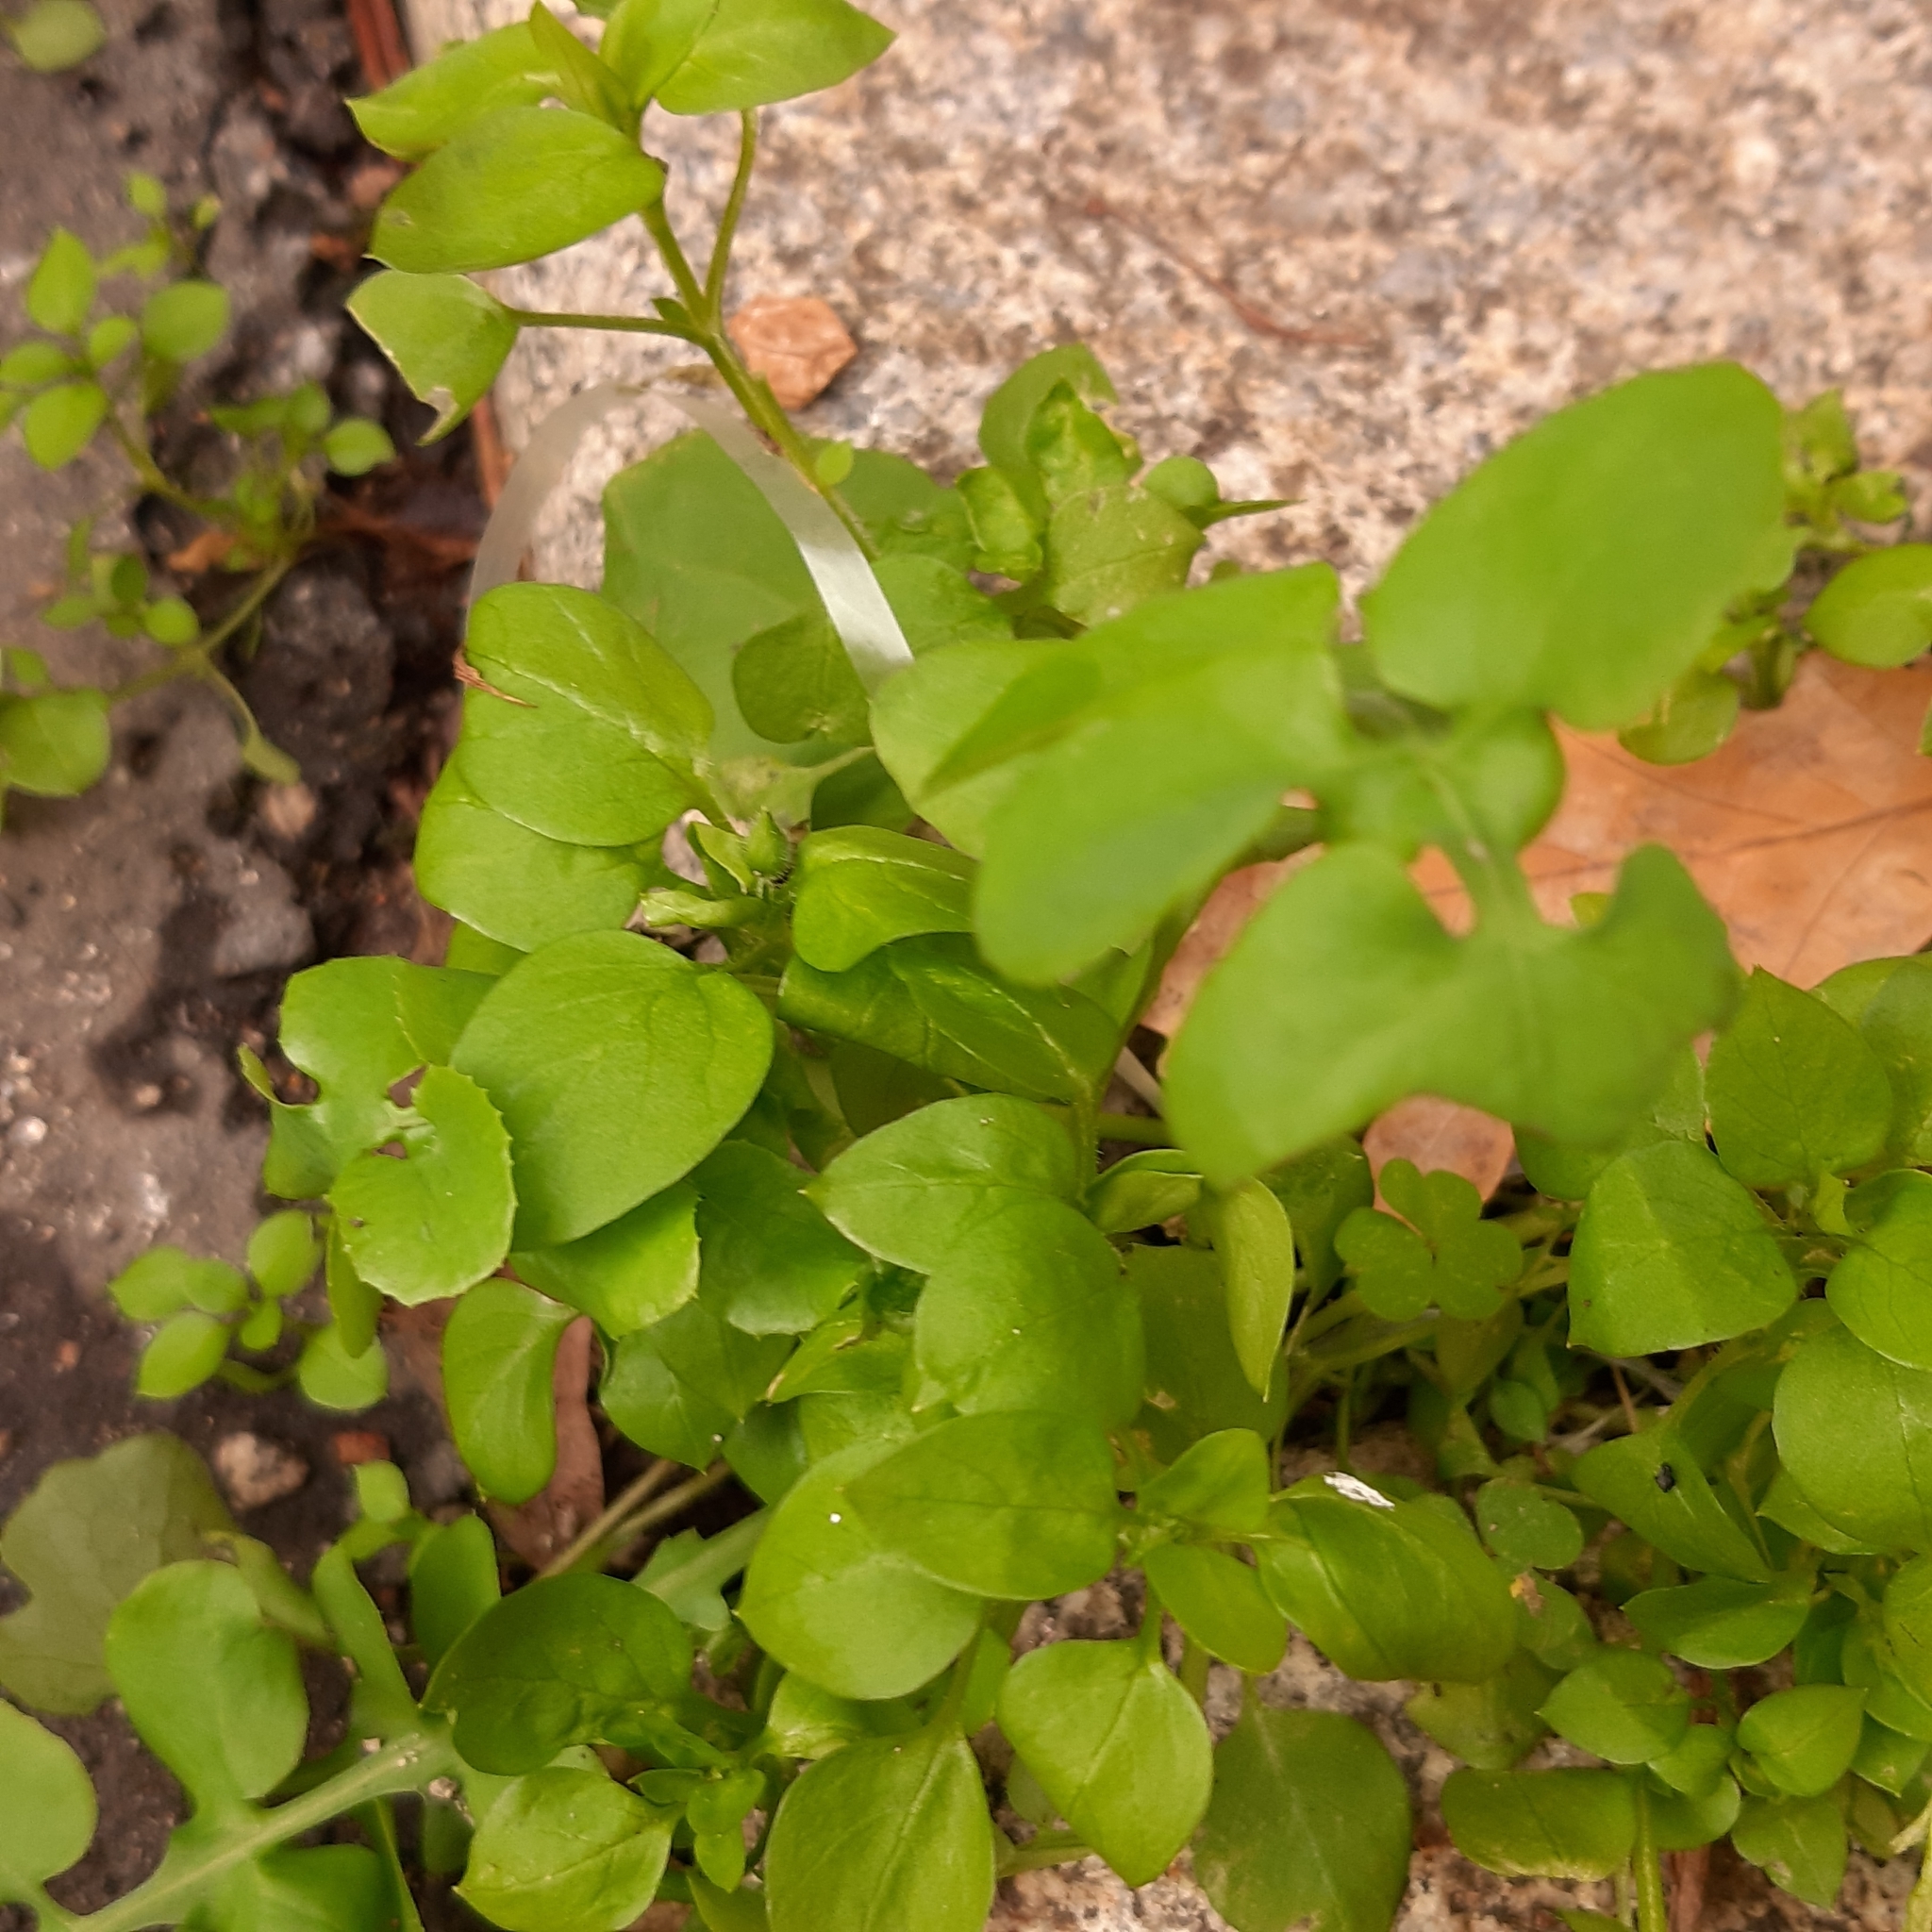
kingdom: Plantae
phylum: Tracheophyta
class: Magnoliopsida
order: Caryophyllales
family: Caryophyllaceae
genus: Stellaria
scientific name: Stellaria media
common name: Common chickweed
